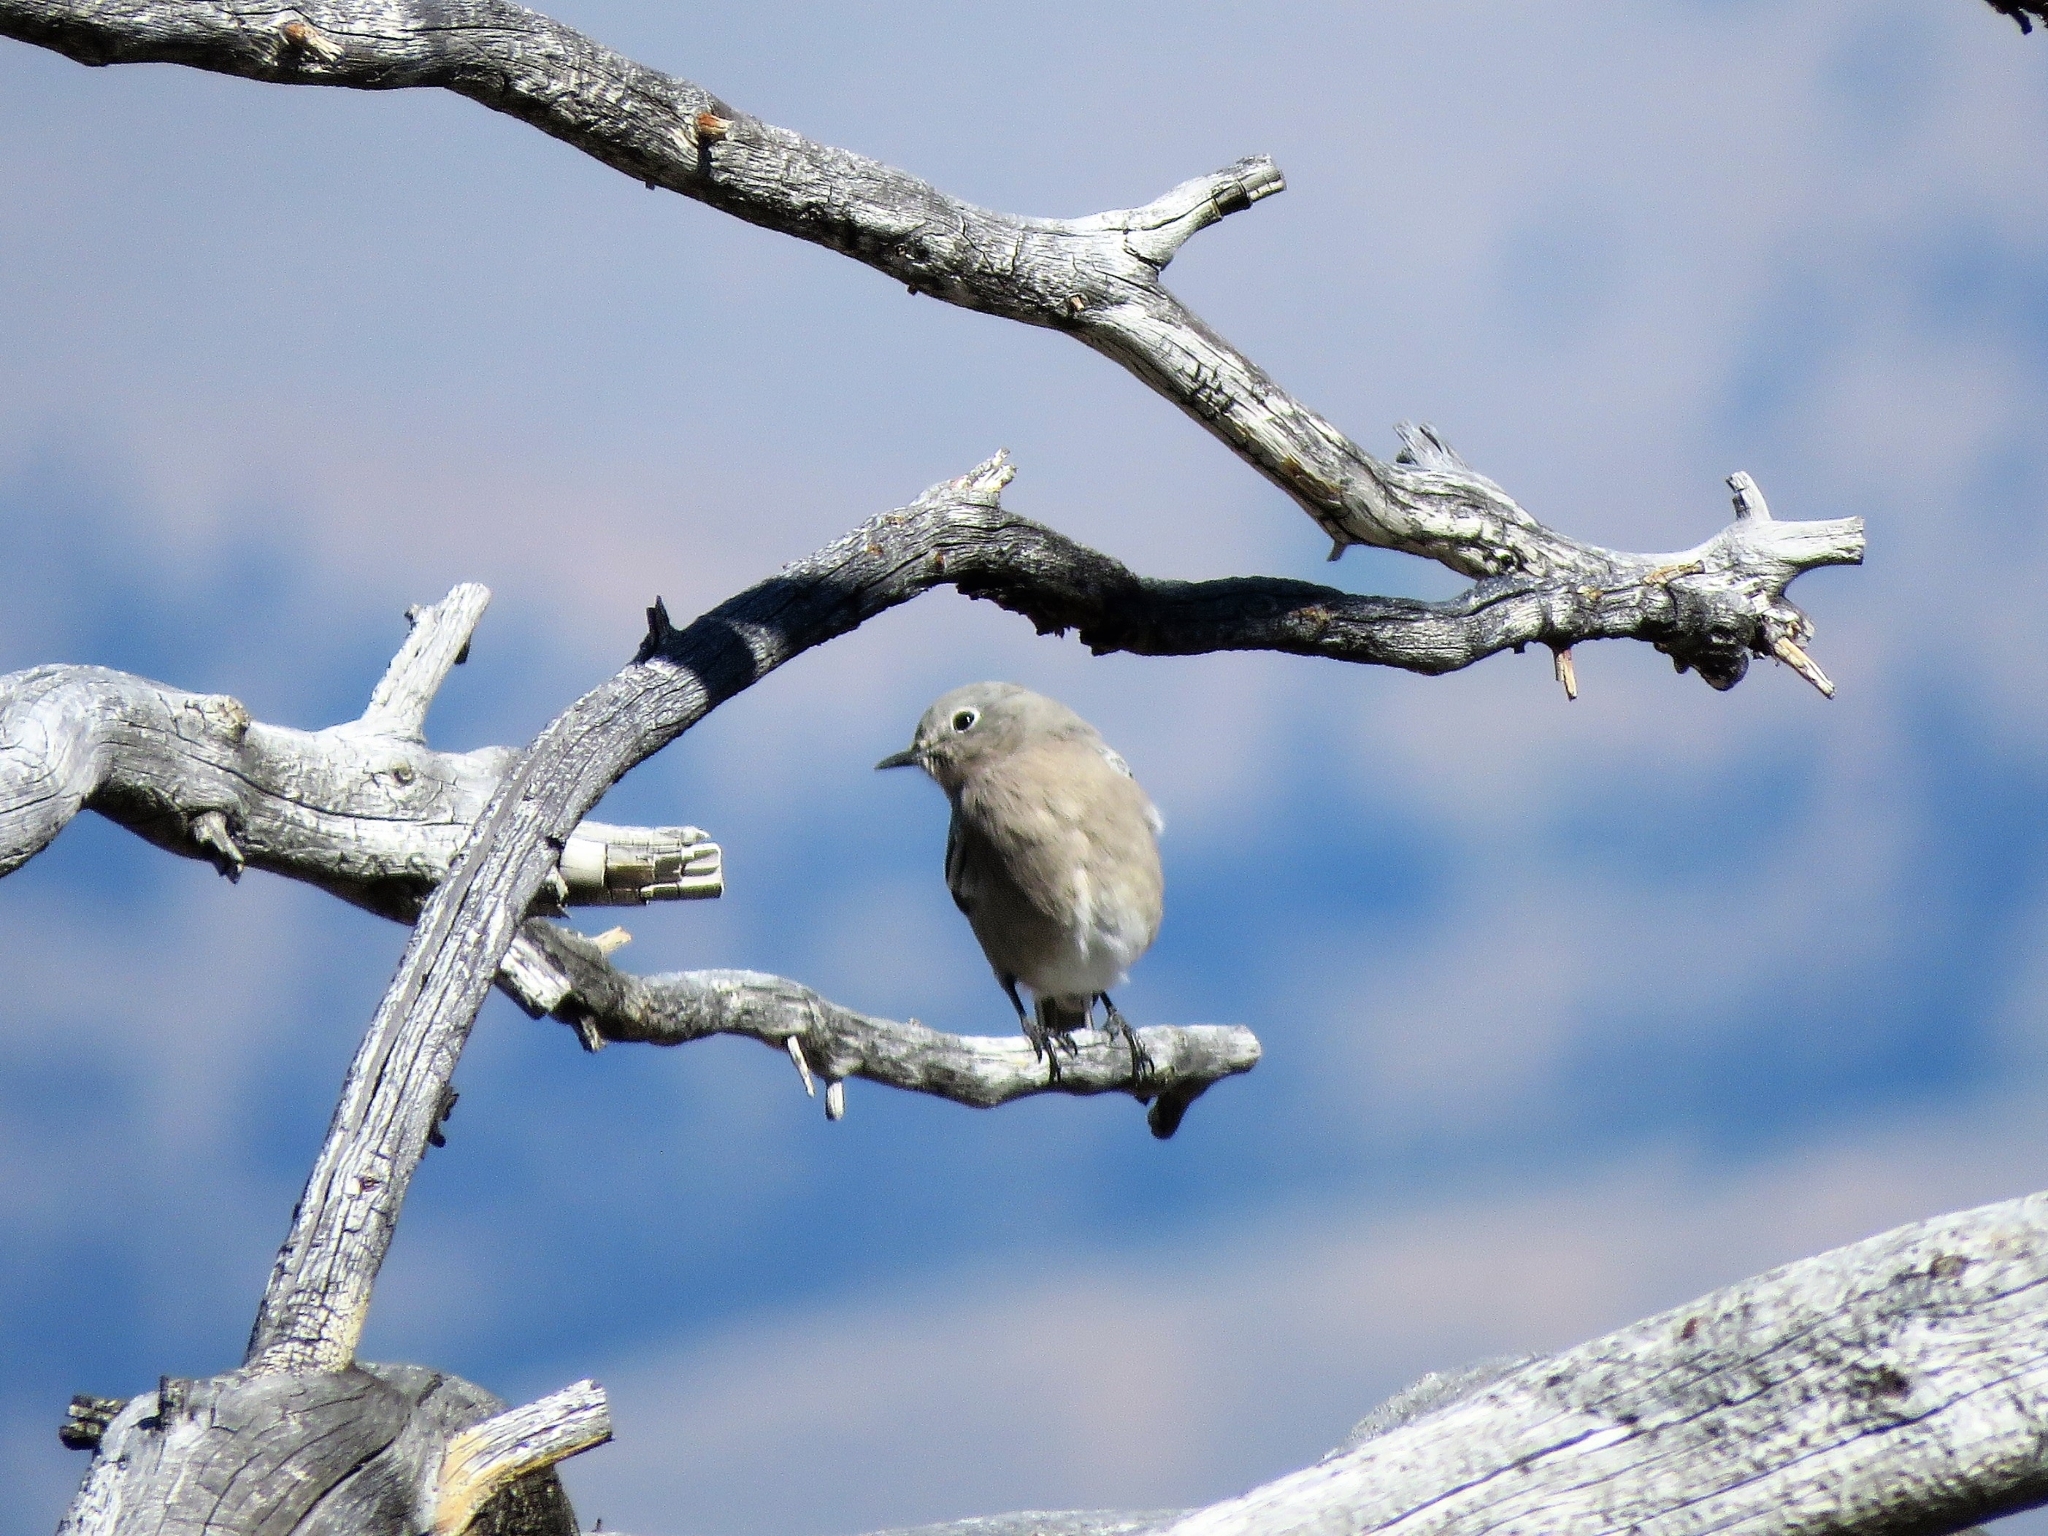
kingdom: Animalia
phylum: Chordata
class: Aves
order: Passeriformes
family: Turdidae
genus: Sialia
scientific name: Sialia currucoides
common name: Mountain bluebird
